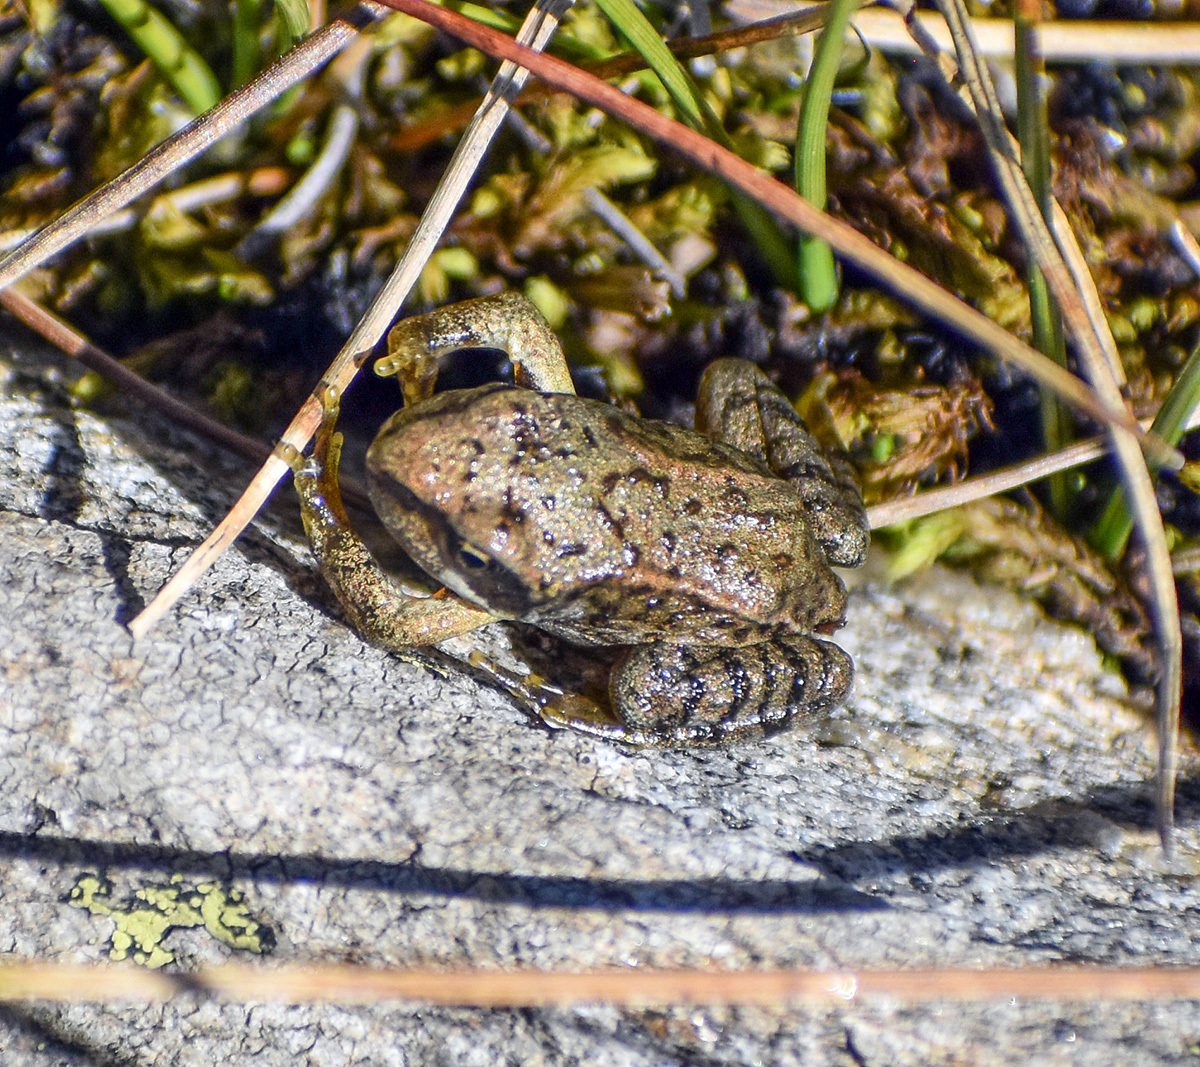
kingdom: Animalia
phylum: Chordata
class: Amphibia
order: Anura
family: Ranidae
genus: Rana
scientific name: Rana temporaria
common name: Common frog
